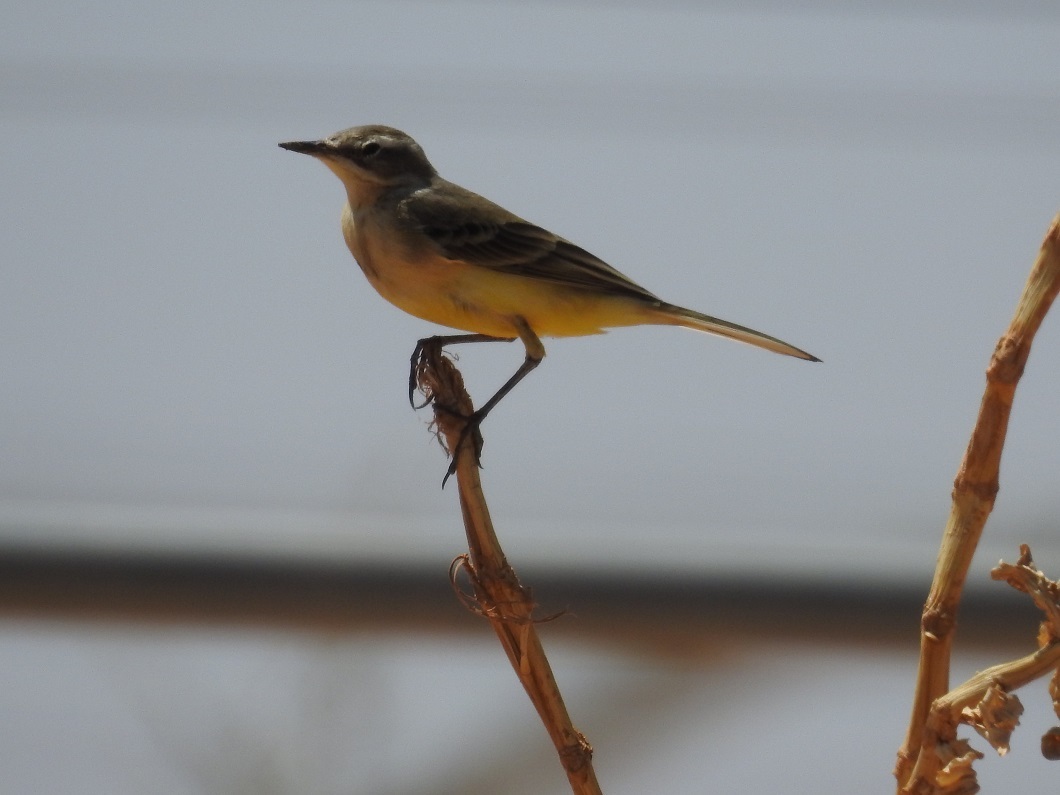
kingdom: Animalia
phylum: Chordata
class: Aves
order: Passeriformes
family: Motacillidae
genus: Motacilla
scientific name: Motacilla flava
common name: Western yellow wagtail
